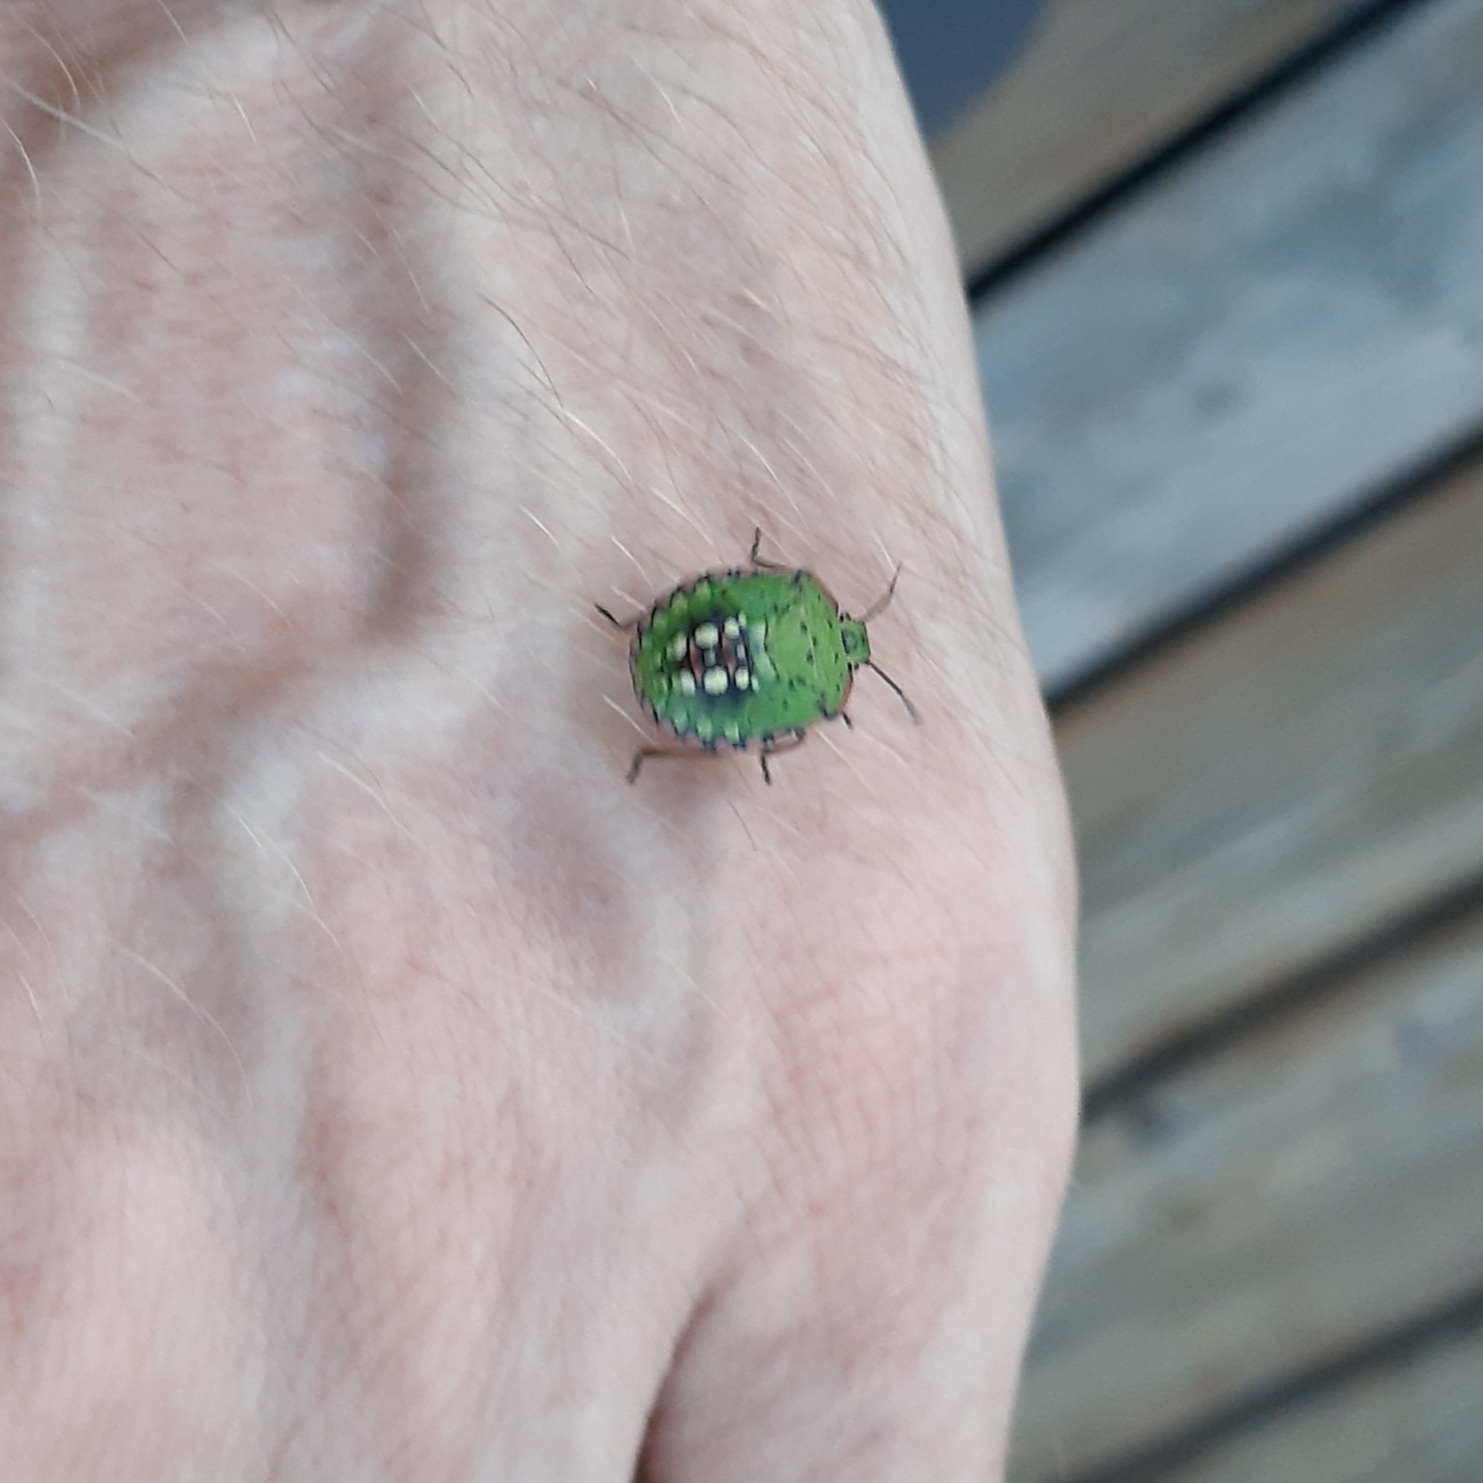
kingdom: Animalia
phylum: Arthropoda
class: Insecta
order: Hemiptera
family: Pentatomidae
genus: Nezara
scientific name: Nezara viridula
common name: Southern green stink bug
